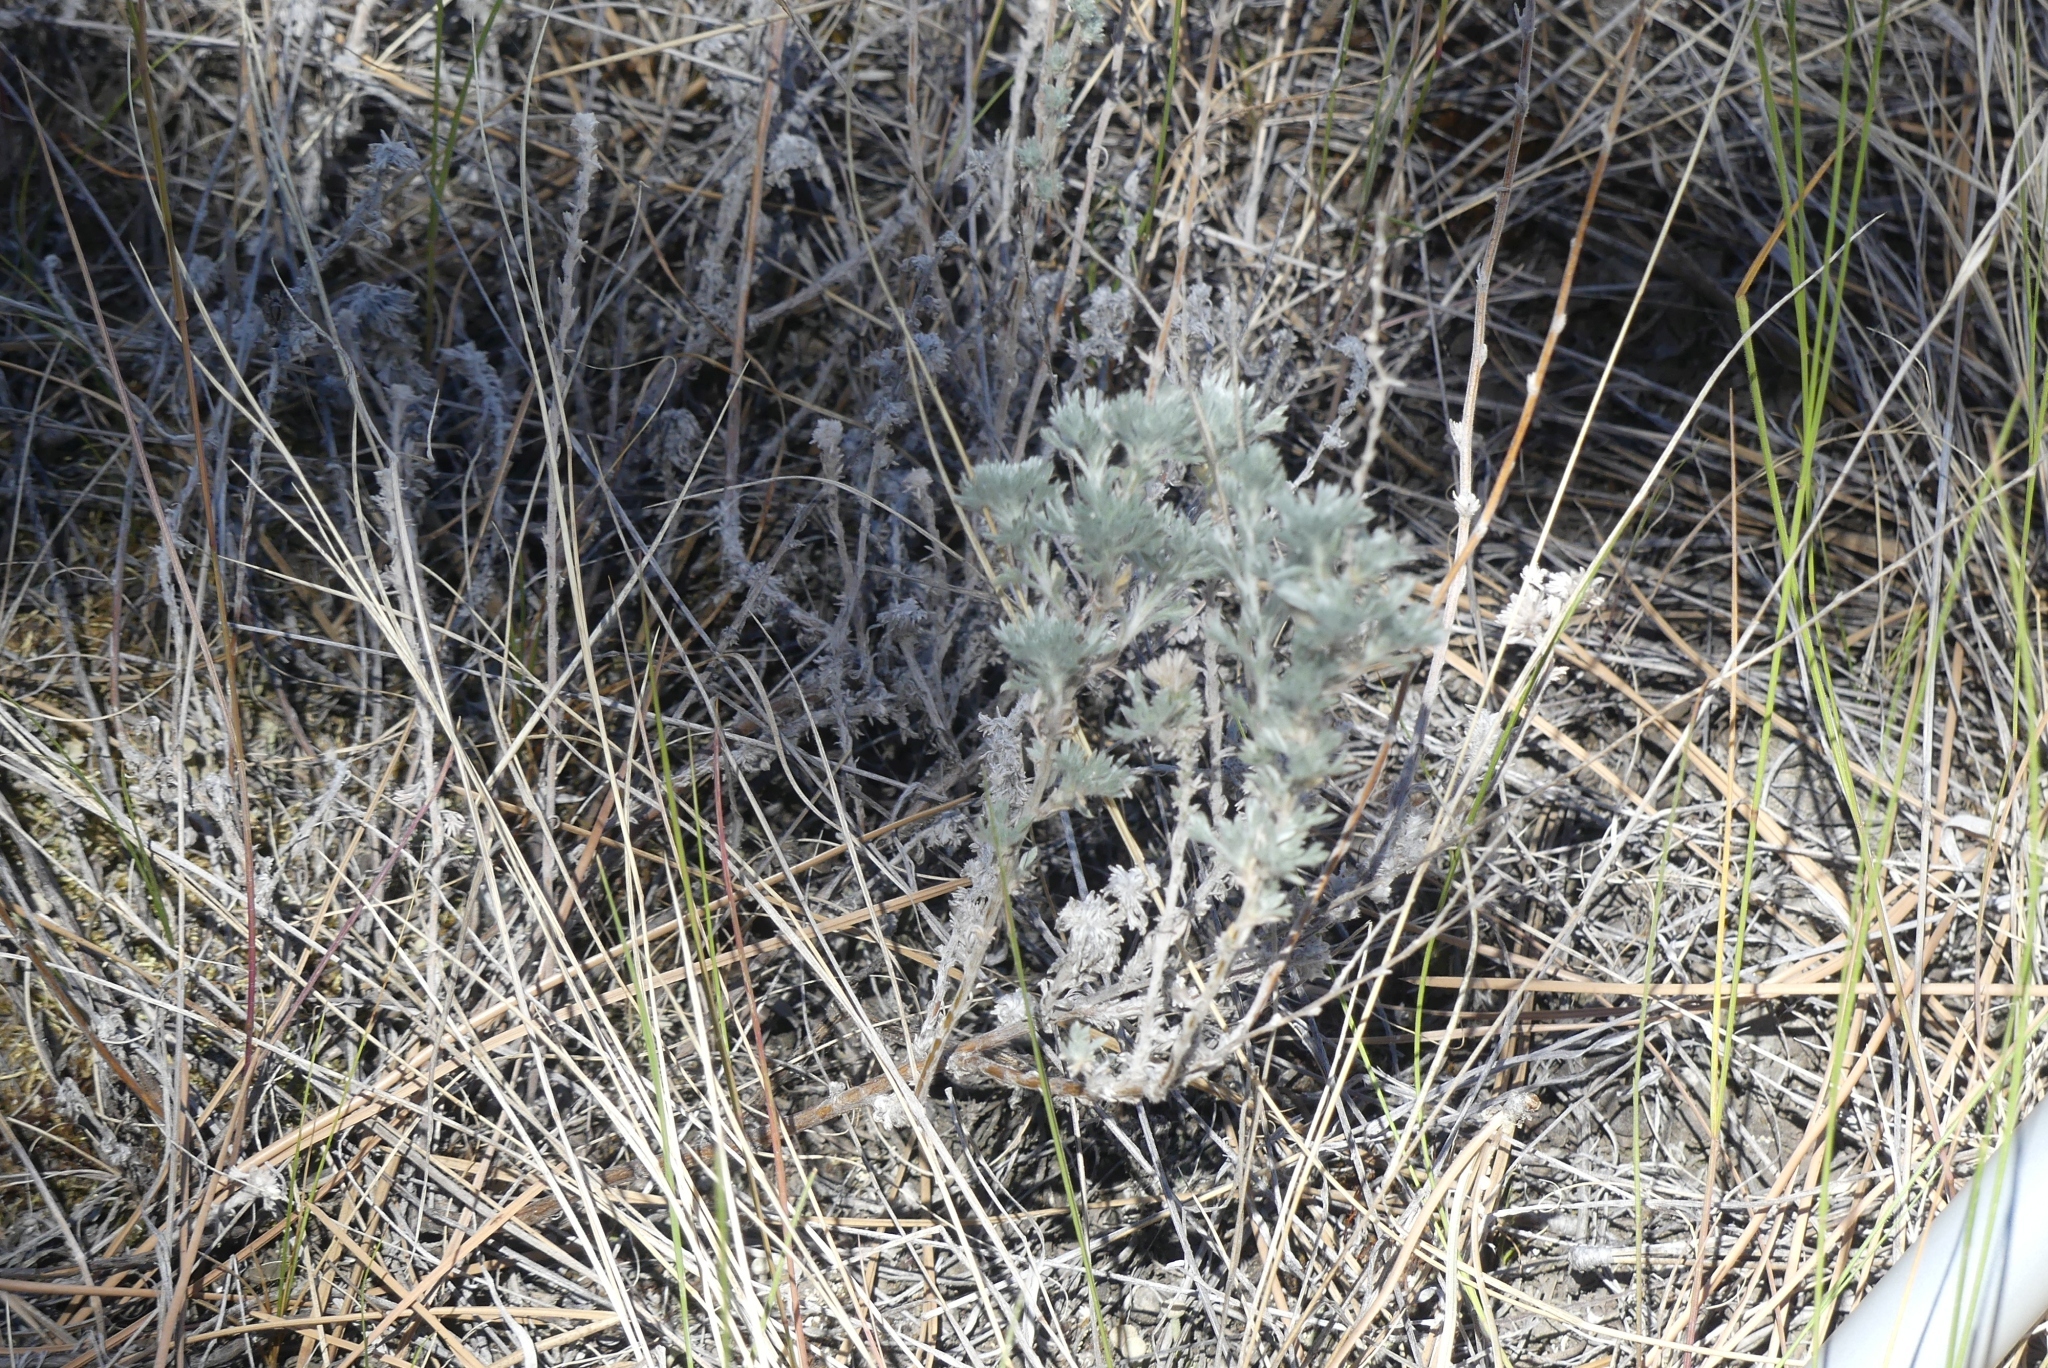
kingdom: Plantae
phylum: Tracheophyta
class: Magnoliopsida
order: Asterales
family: Asteraceae
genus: Artemisia
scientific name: Artemisia frigida
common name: Prairie sagewort
